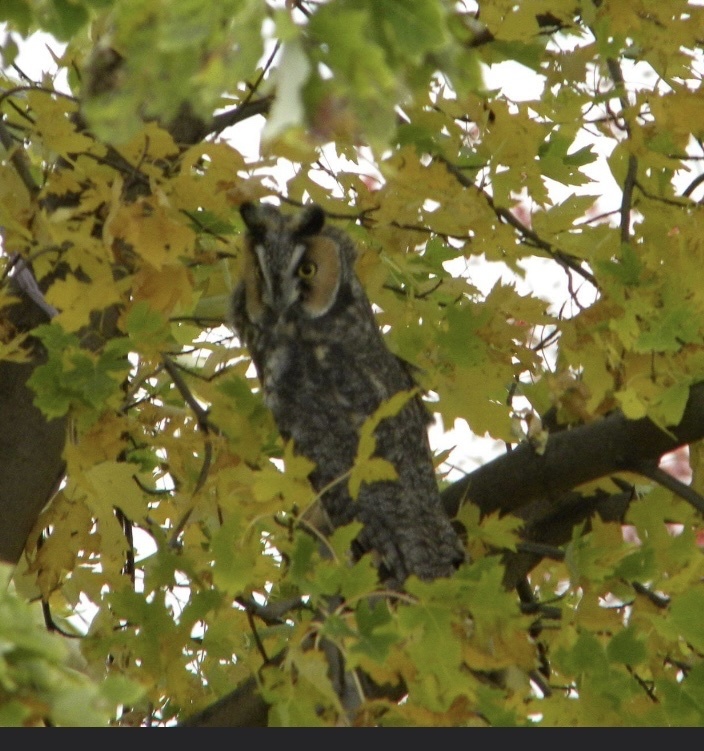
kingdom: Animalia
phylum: Chordata
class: Aves
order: Strigiformes
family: Strigidae
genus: Asio
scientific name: Asio otus
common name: Long-eared owl
